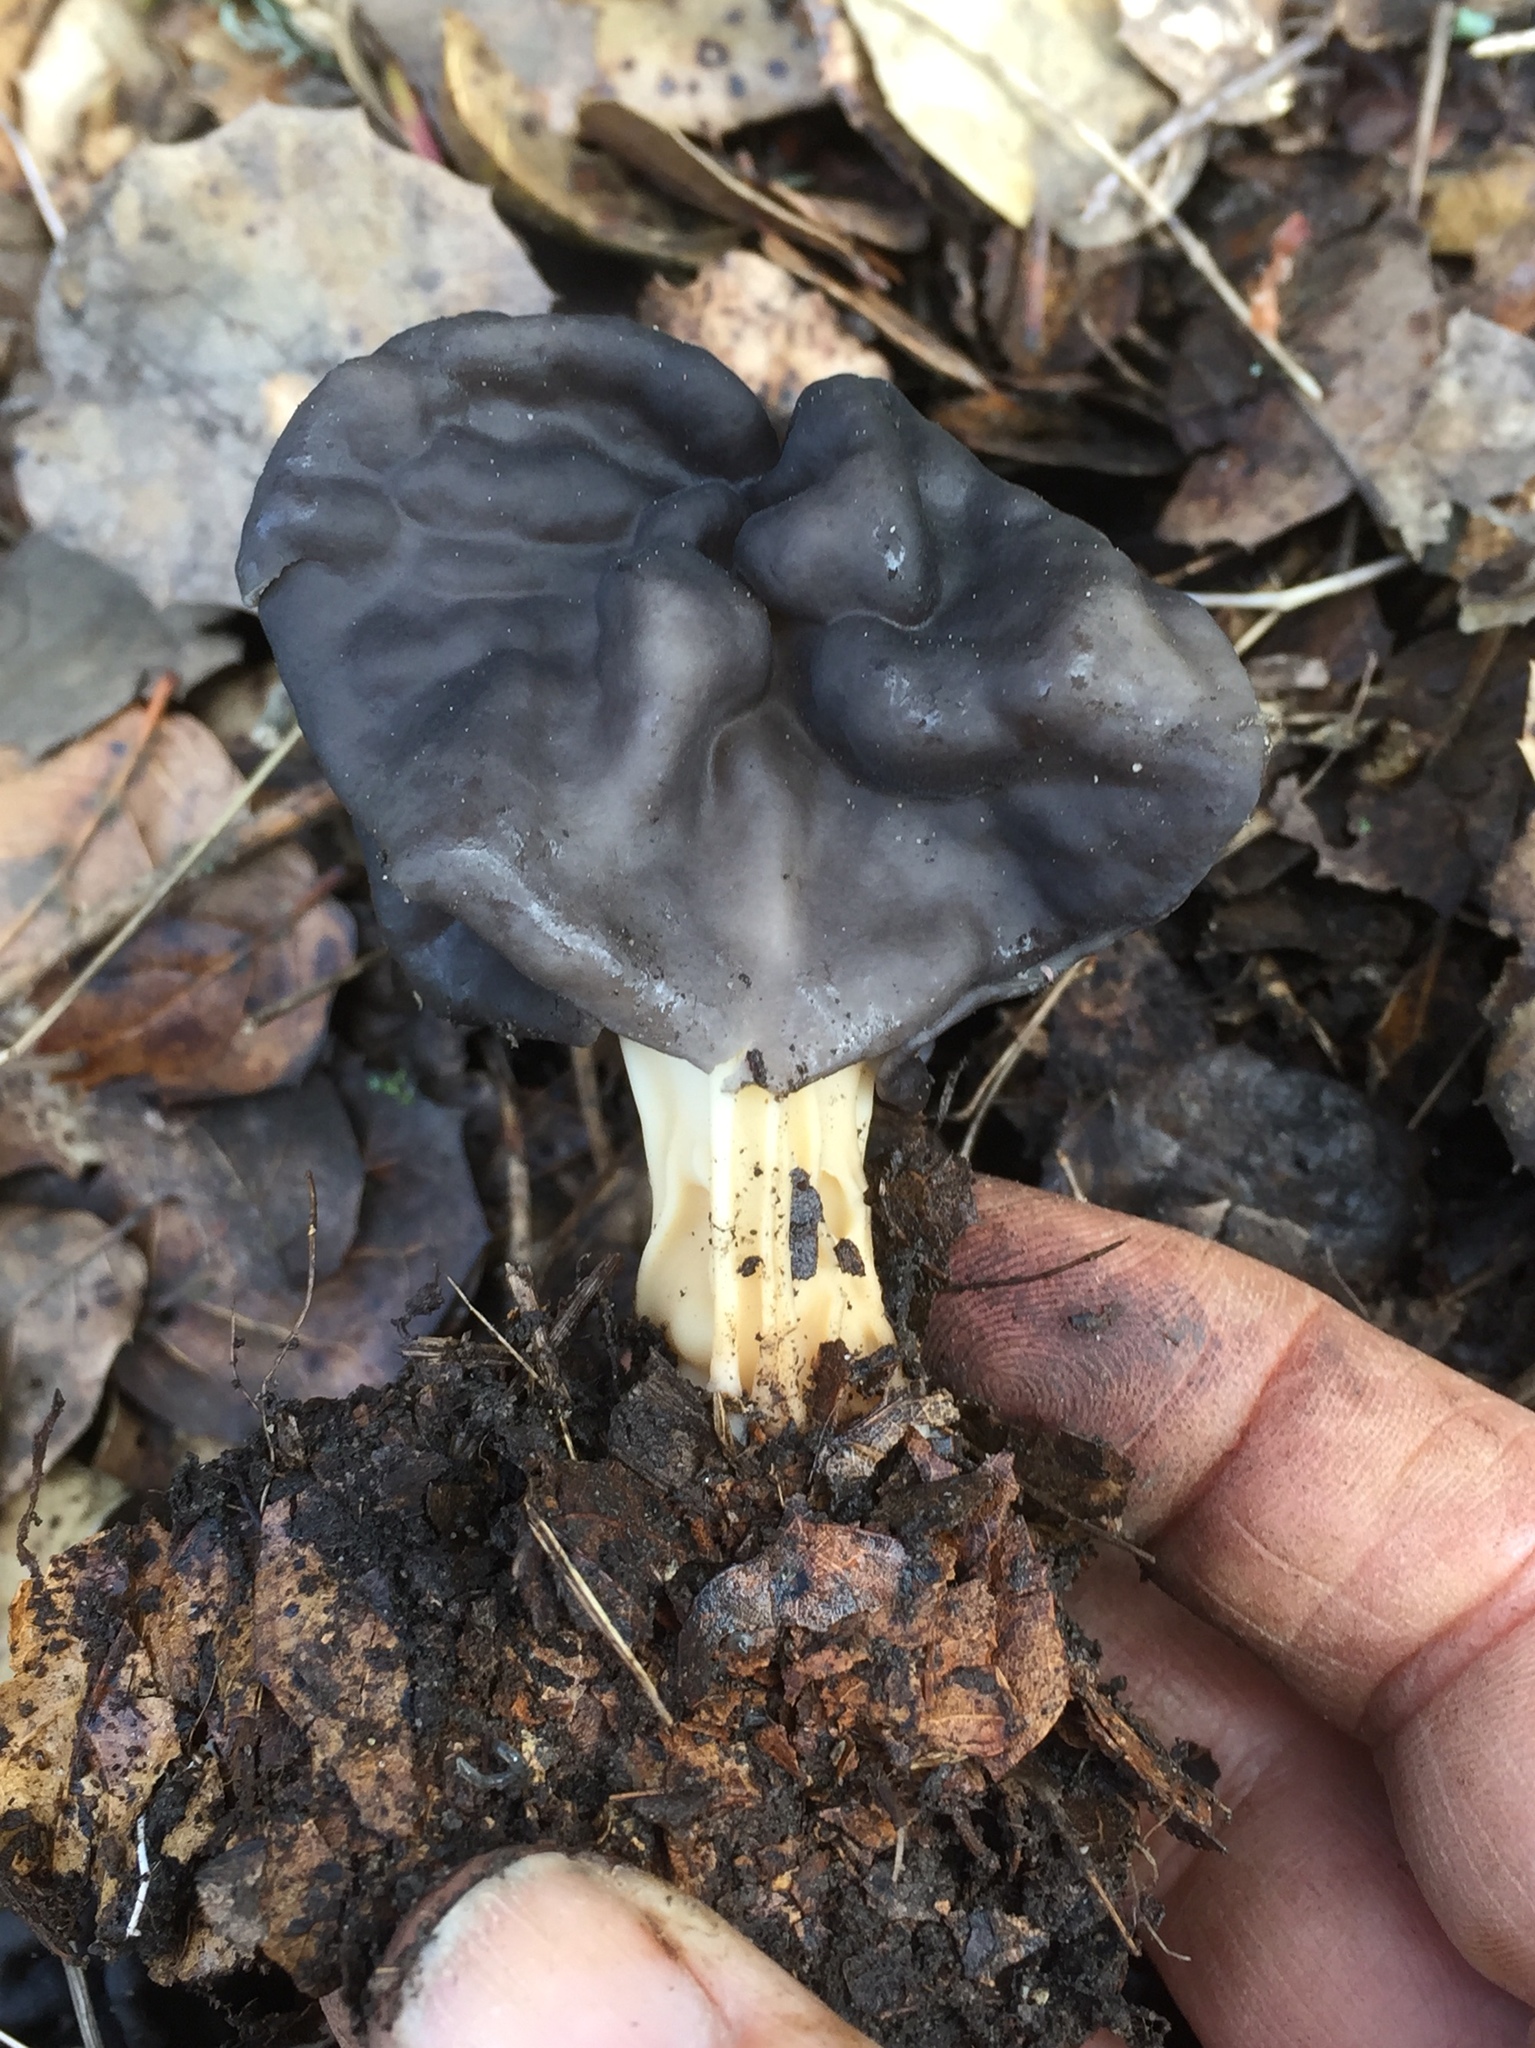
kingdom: Fungi
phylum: Ascomycota
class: Pezizomycetes
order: Pezizales
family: Helvellaceae
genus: Helvella
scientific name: Helvella dryophila
